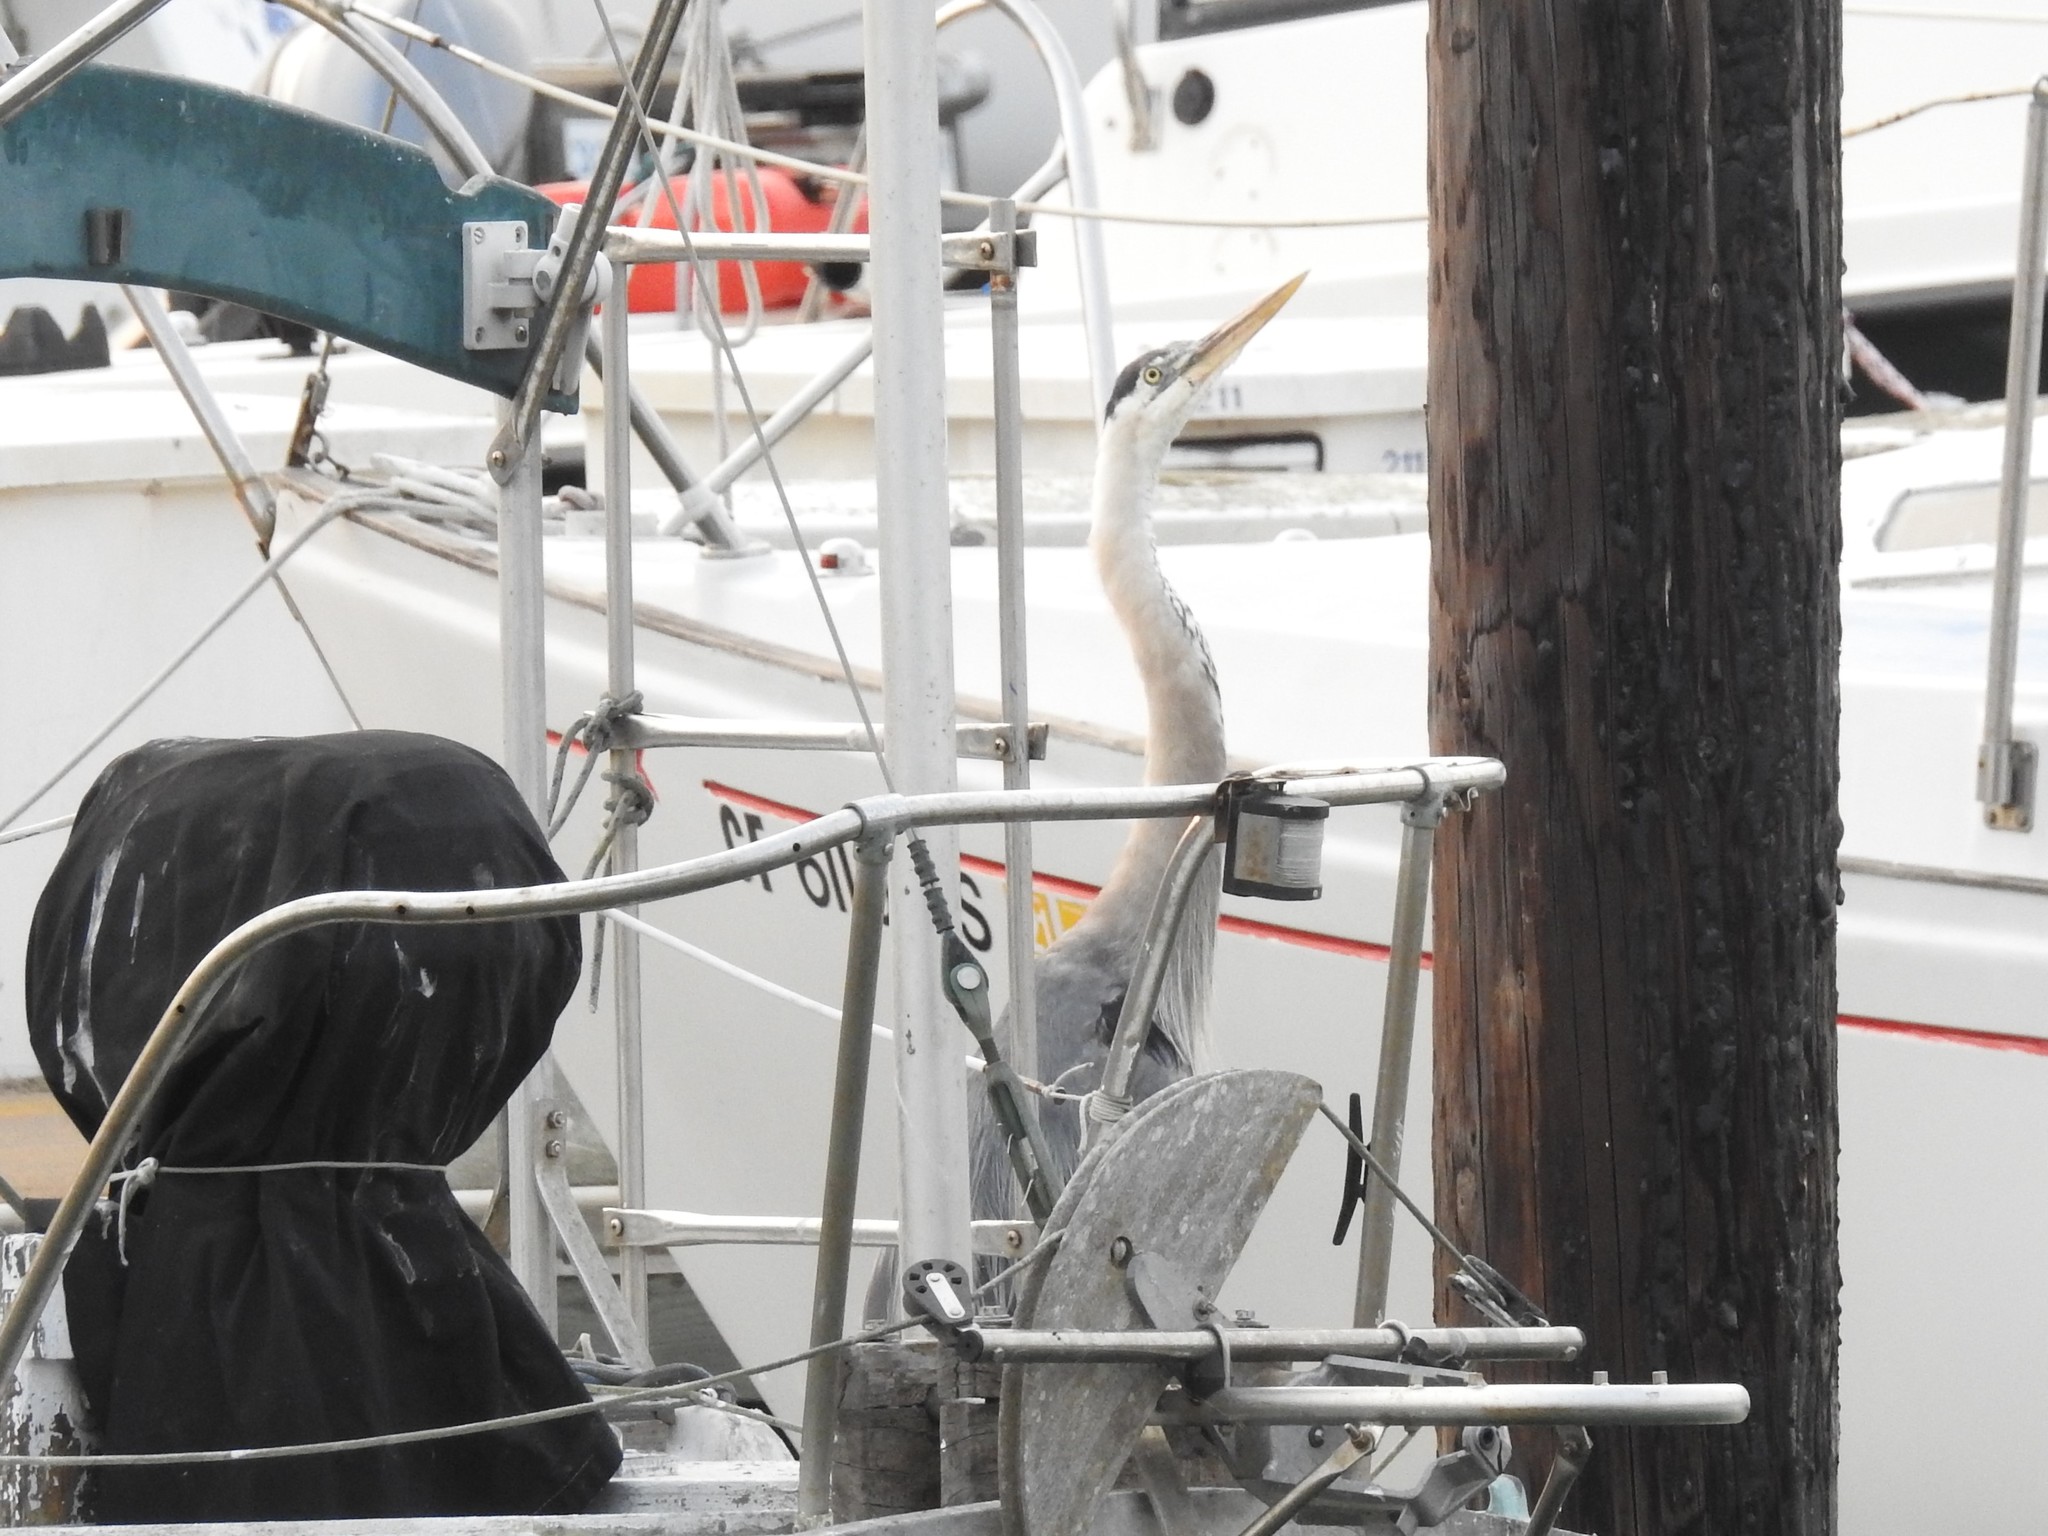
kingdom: Animalia
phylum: Chordata
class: Aves
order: Pelecaniformes
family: Ardeidae
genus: Ardea
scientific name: Ardea herodias
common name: Great blue heron
